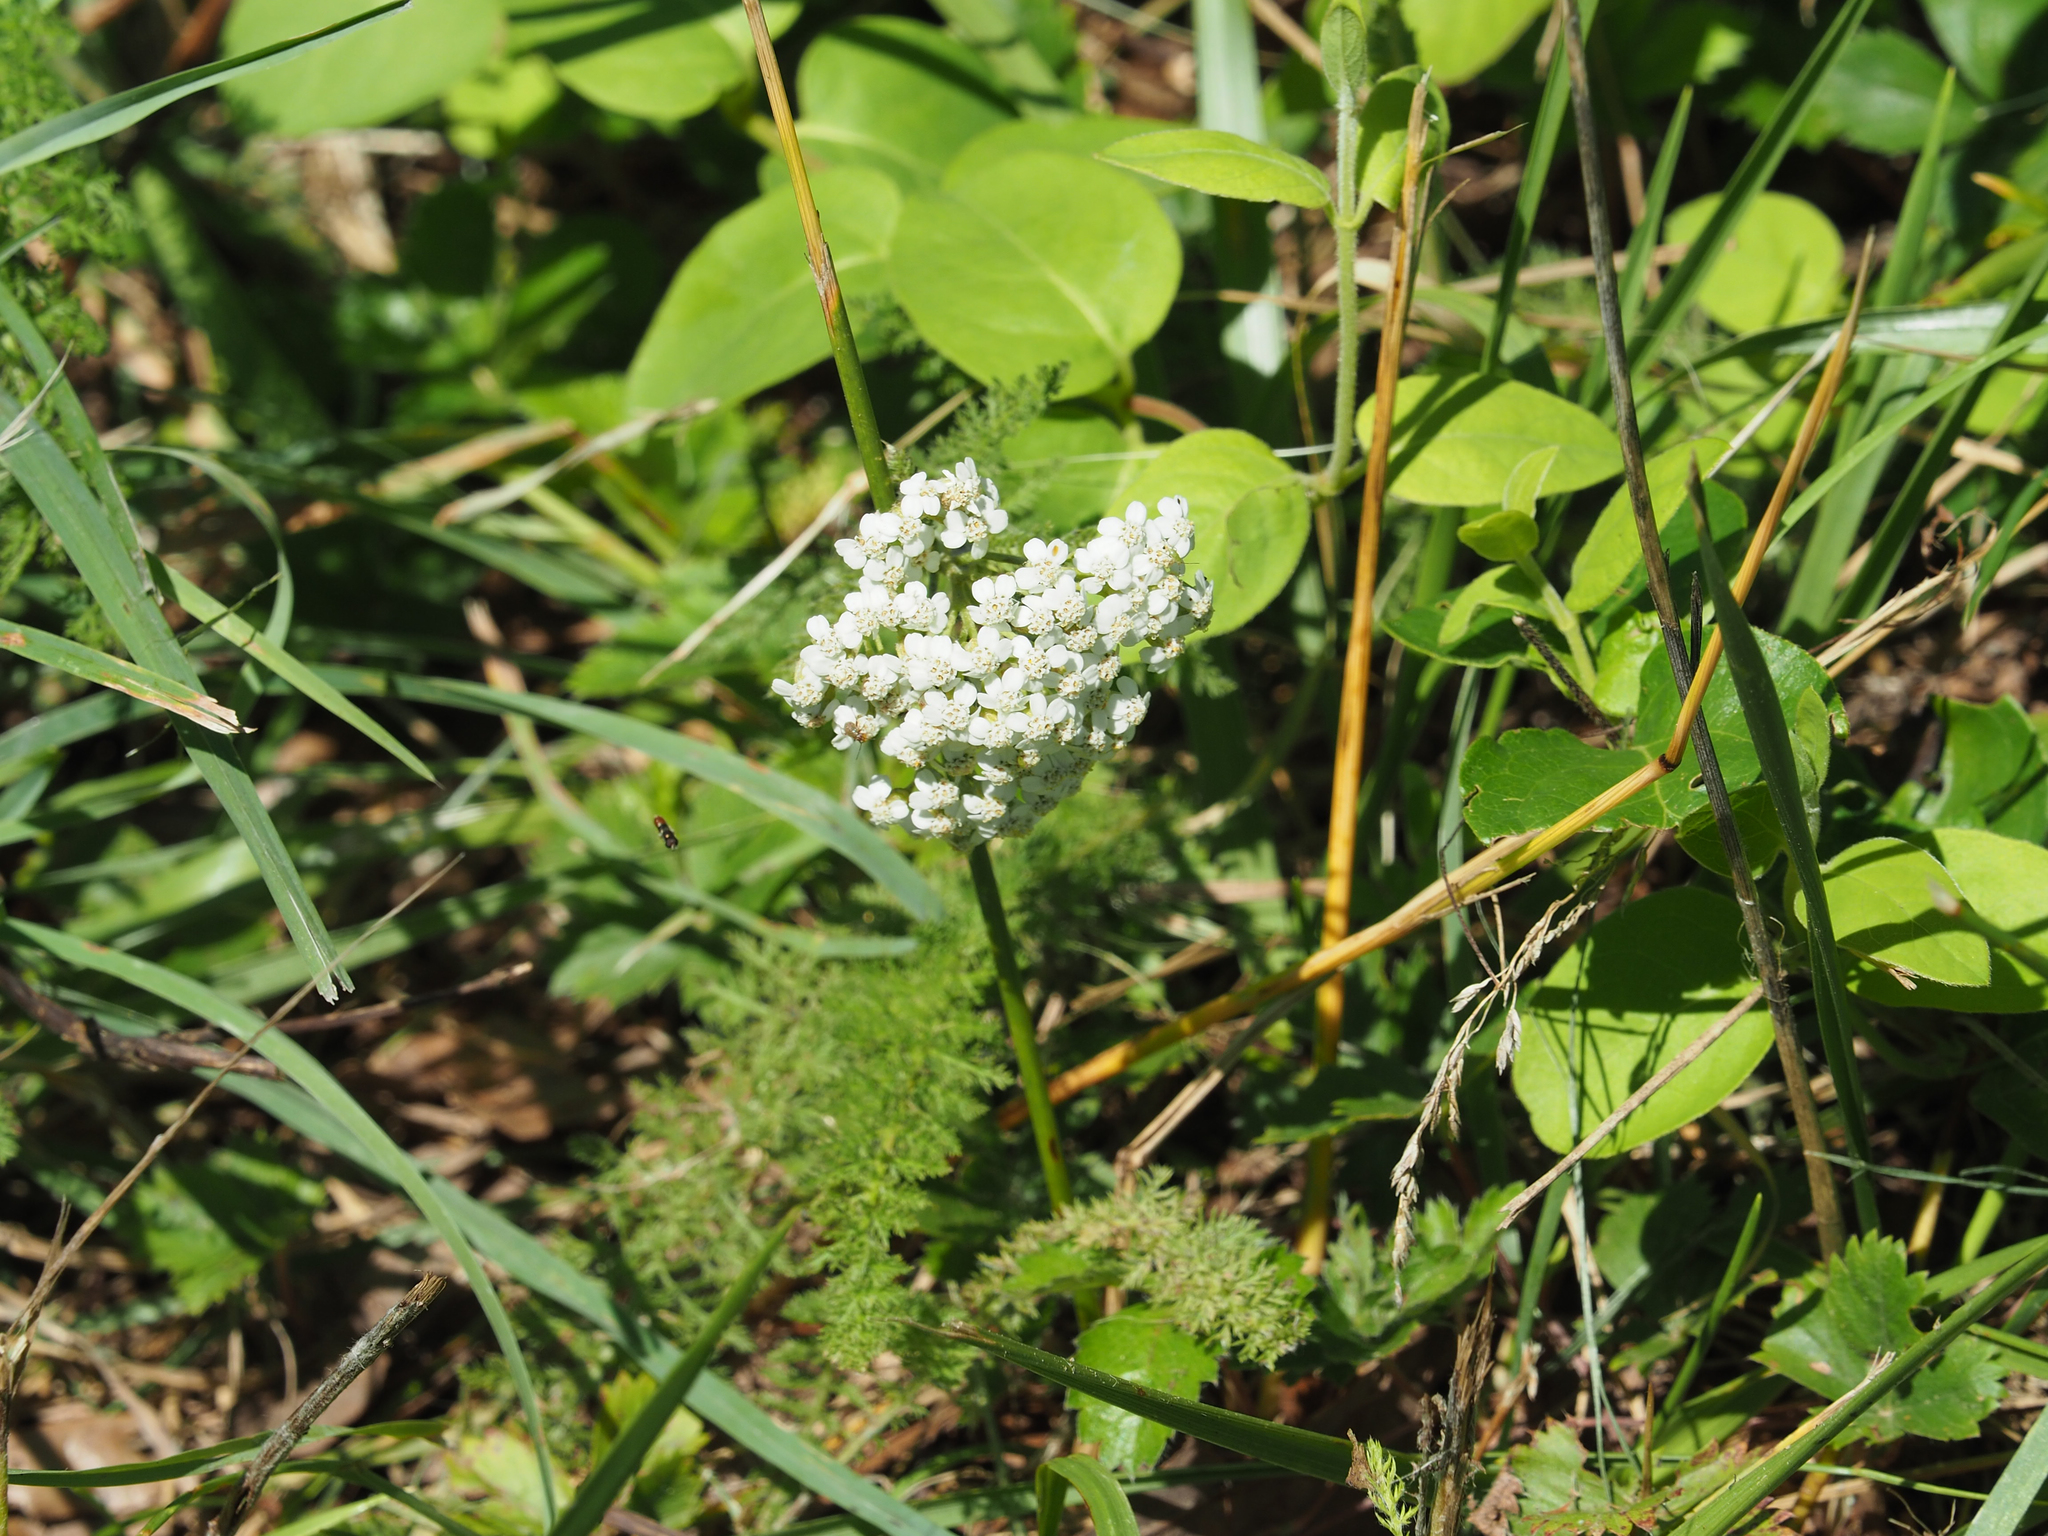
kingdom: Plantae
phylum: Tracheophyta
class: Magnoliopsida
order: Asterales
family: Asteraceae
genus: Achillea
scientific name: Achillea millefolium
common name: Yarrow
